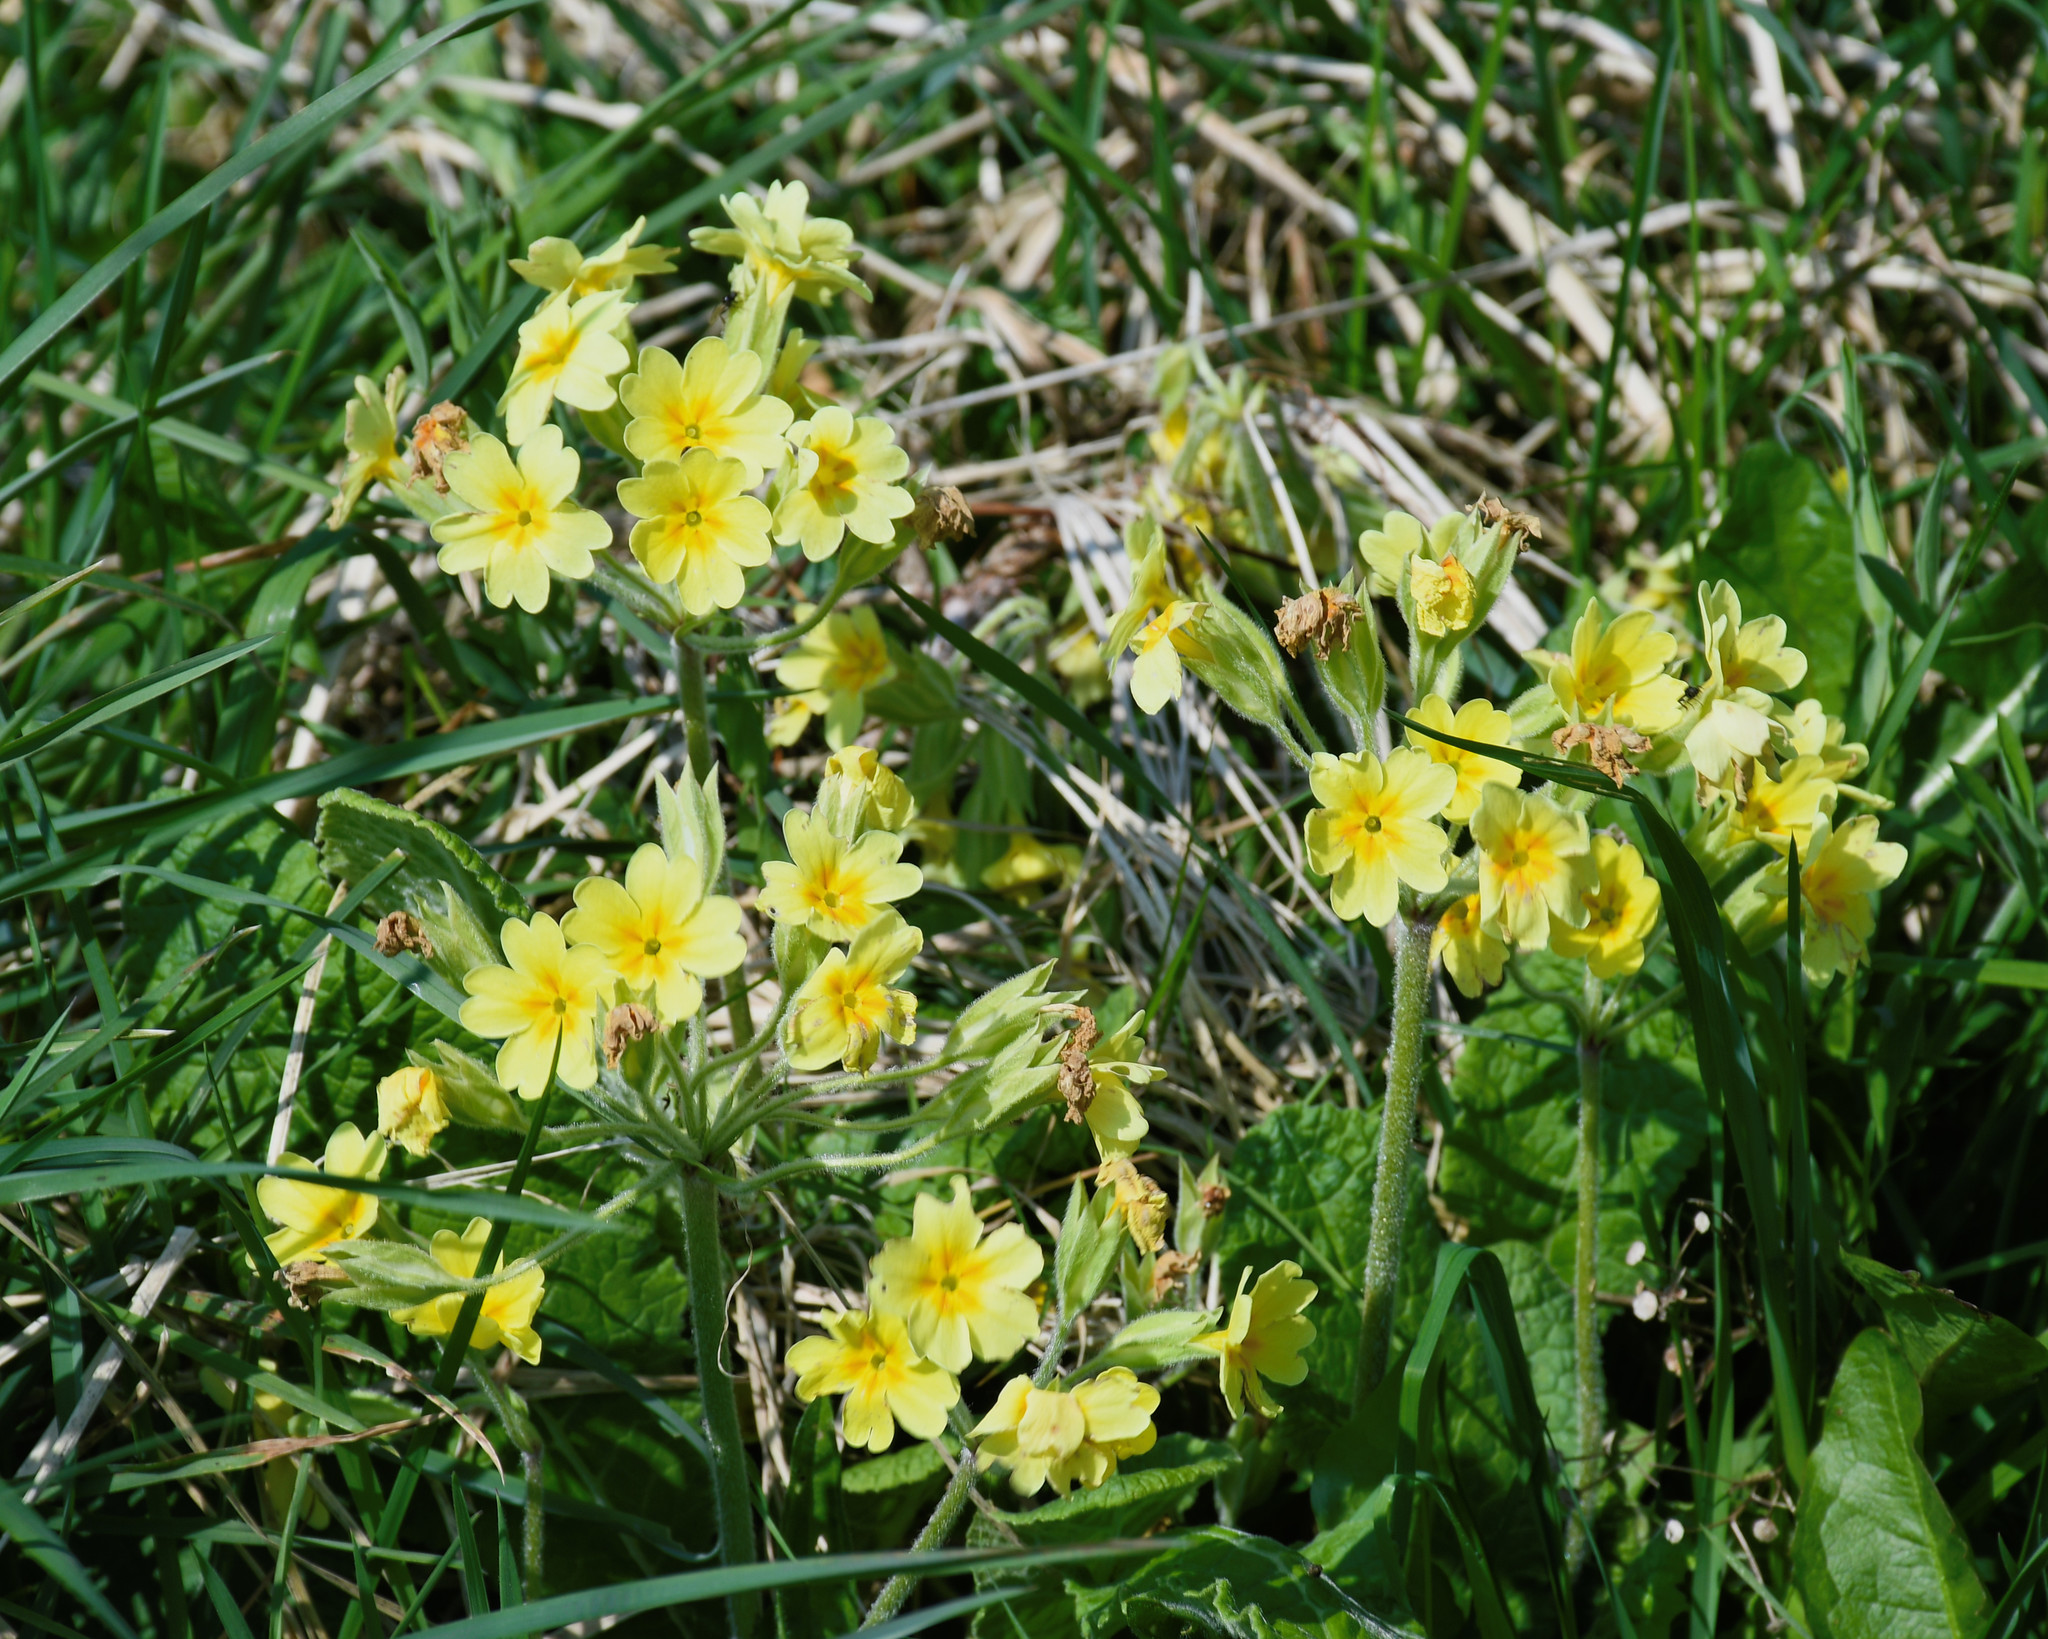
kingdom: Plantae
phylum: Tracheophyta
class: Magnoliopsida
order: Ericales
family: Primulaceae
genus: Primula
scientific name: Primula polyantha
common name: False oxlip
